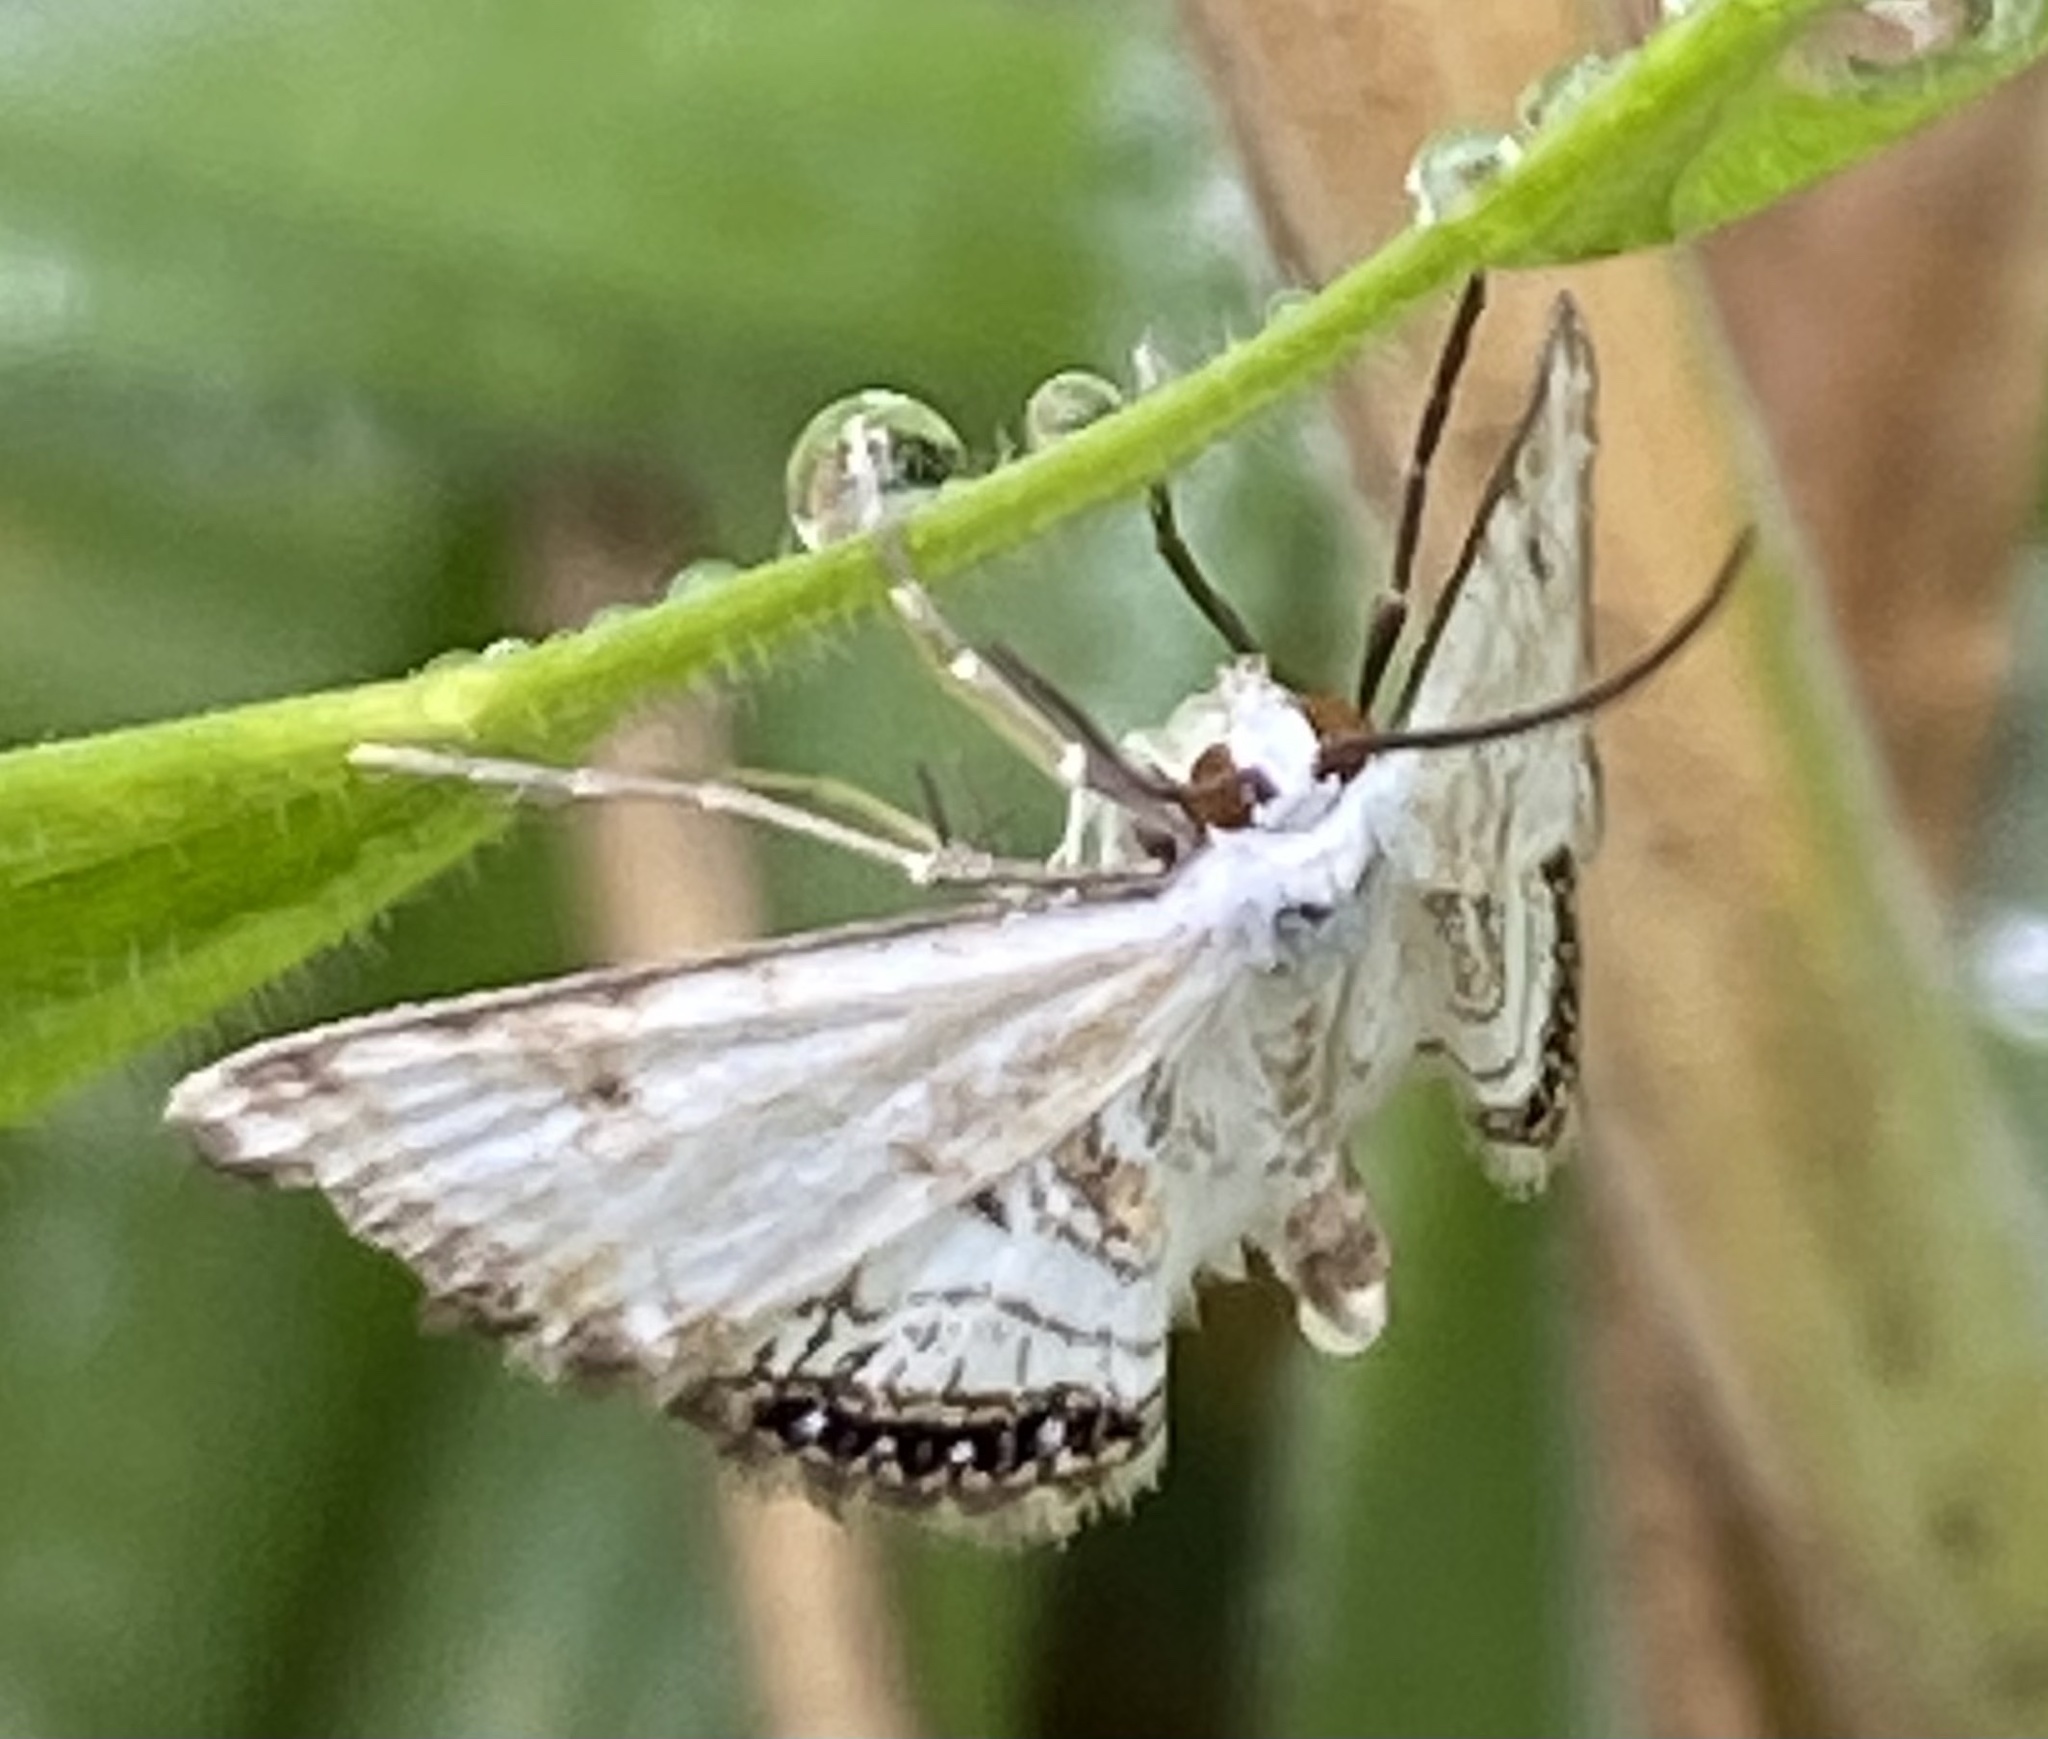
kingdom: Animalia
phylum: Arthropoda
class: Insecta
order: Lepidoptera
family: Crambidae
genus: Cataclysta
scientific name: Cataclysta lemnata
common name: Small china-mark
